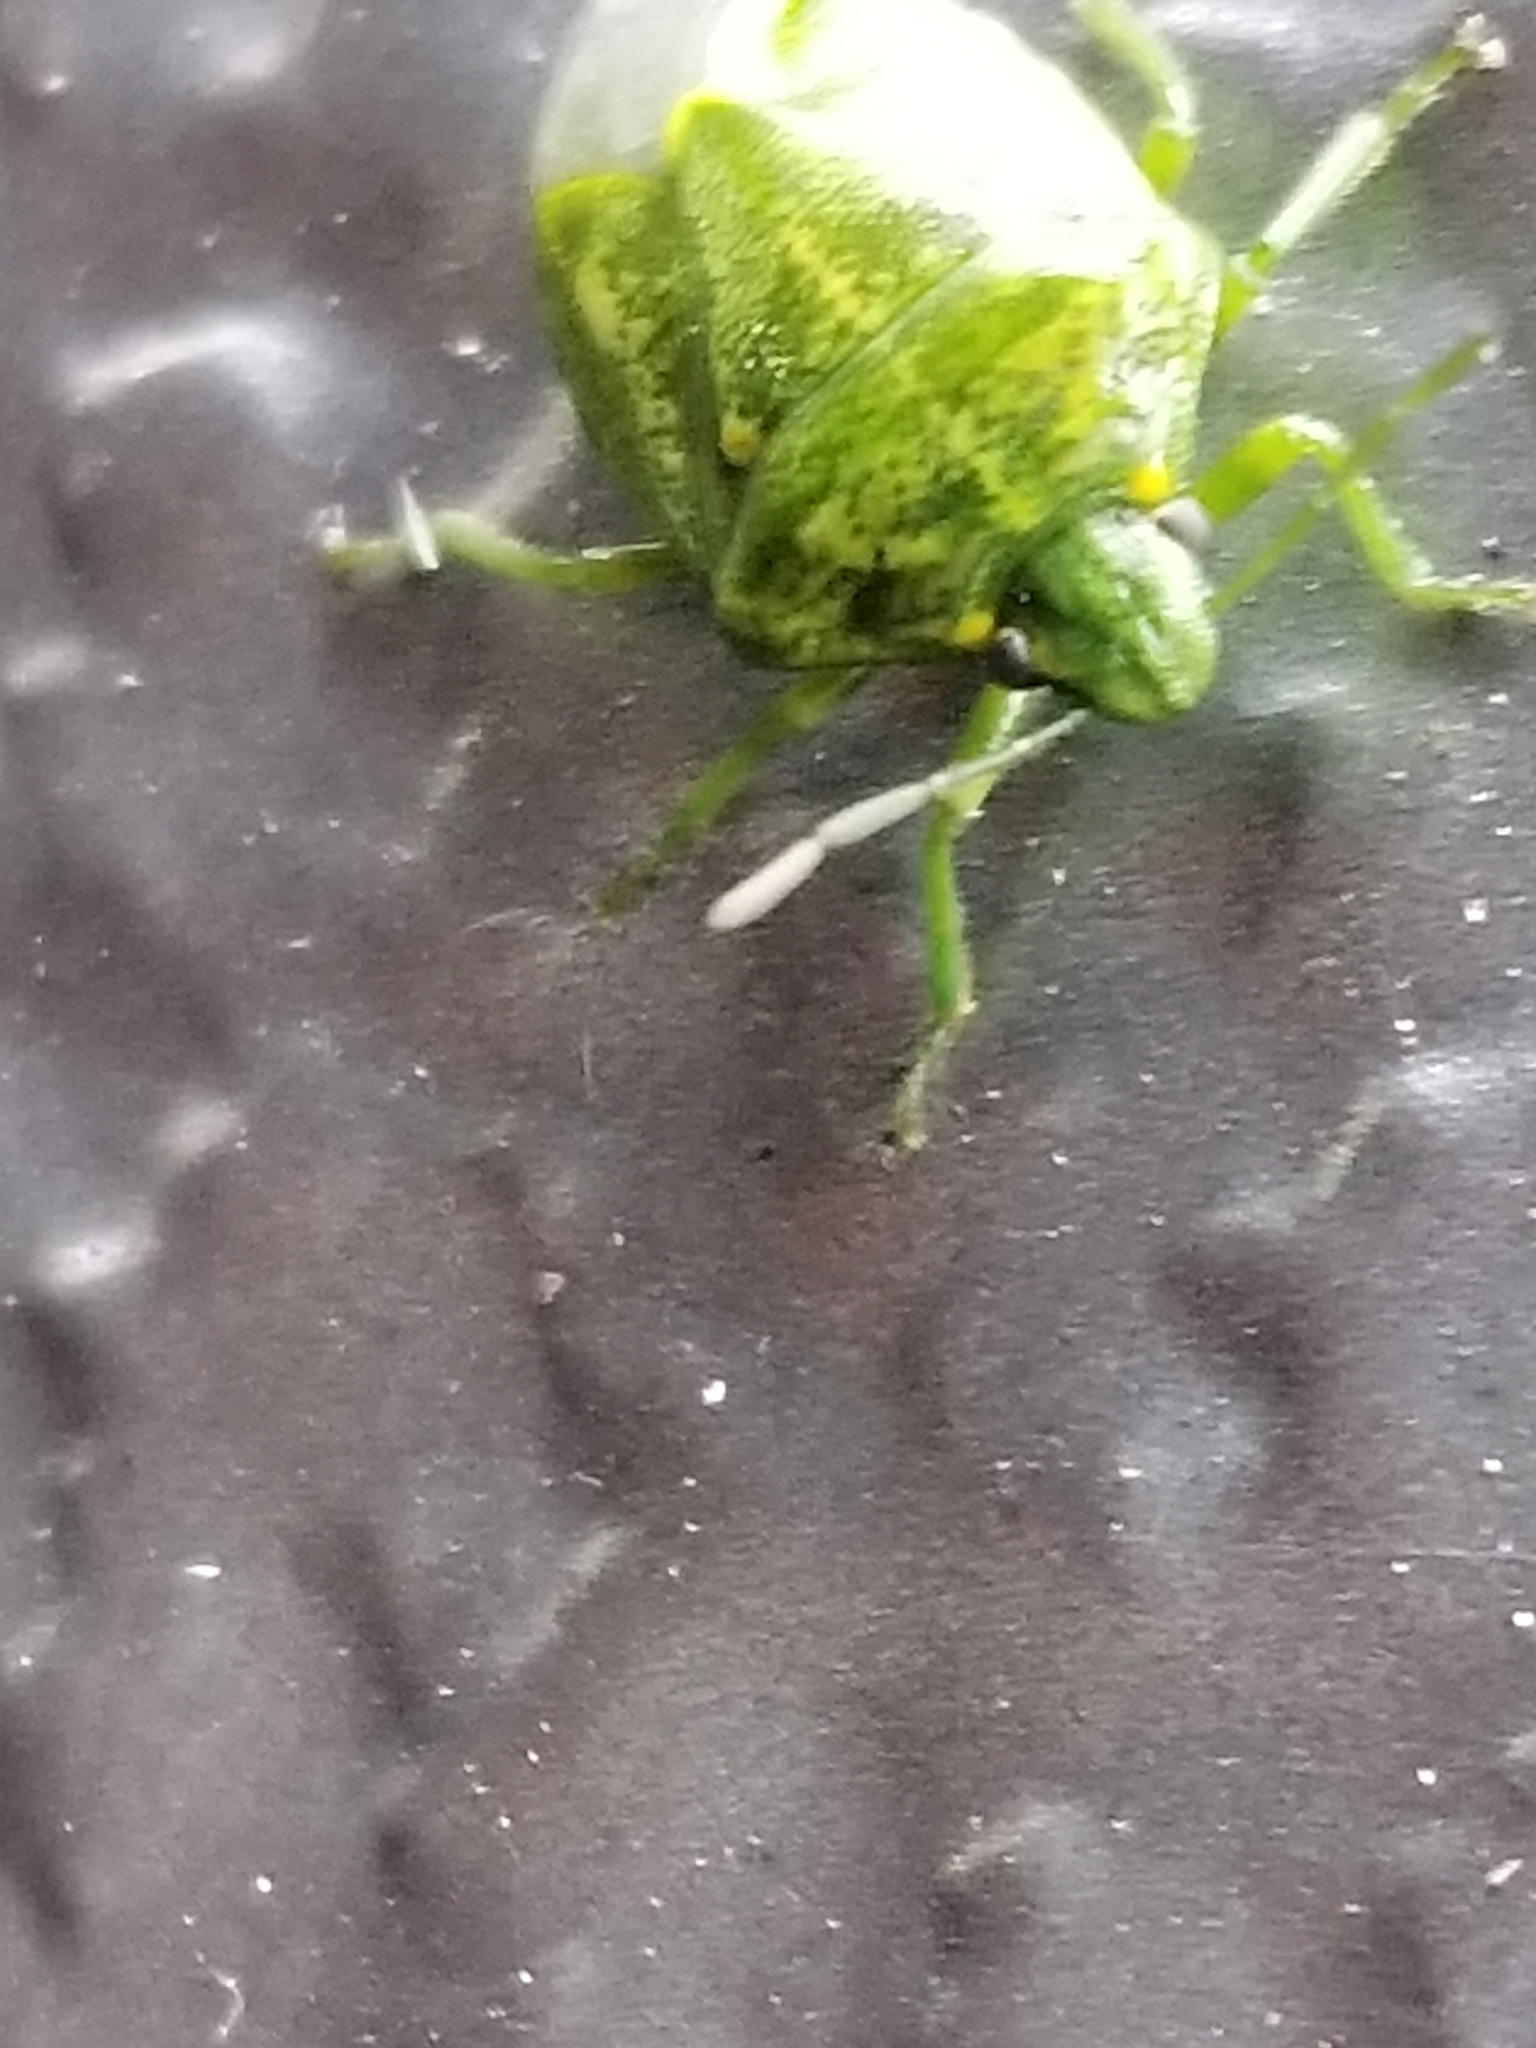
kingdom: Animalia
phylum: Arthropoda
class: Insecta
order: Hemiptera
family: Pentatomidae
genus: Banasa
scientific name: Banasa euchlora
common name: Cedar berry bug
